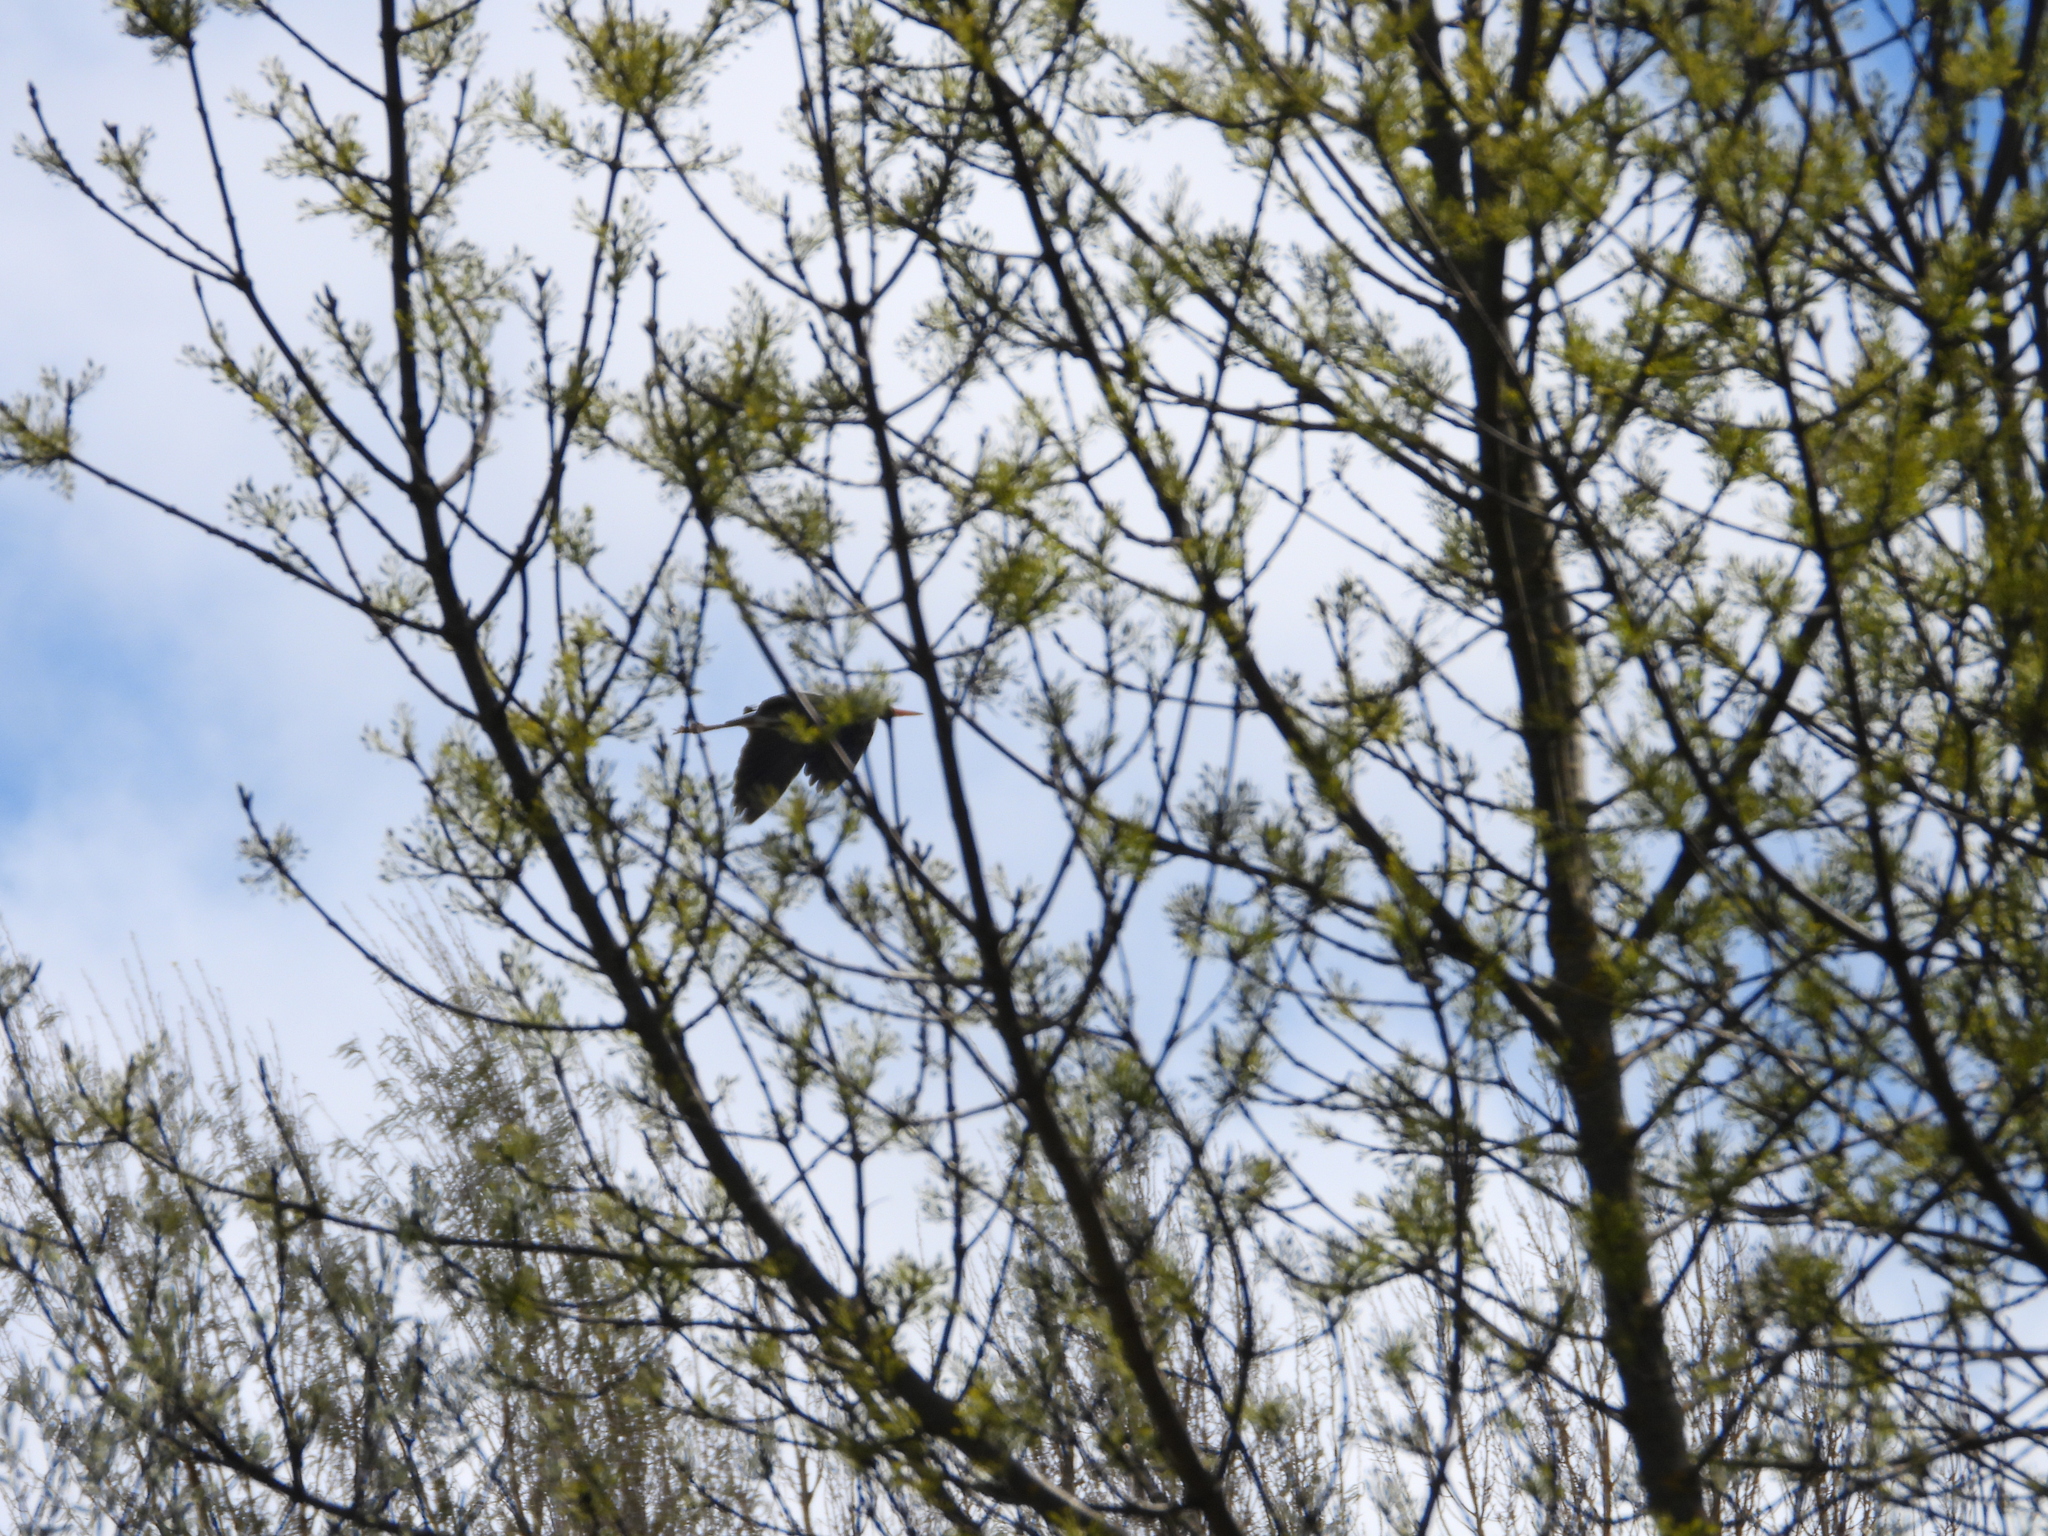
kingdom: Animalia
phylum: Chordata
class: Aves
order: Pelecaniformes
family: Ardeidae
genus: Ardea
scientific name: Ardea cinerea
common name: Grey heron
